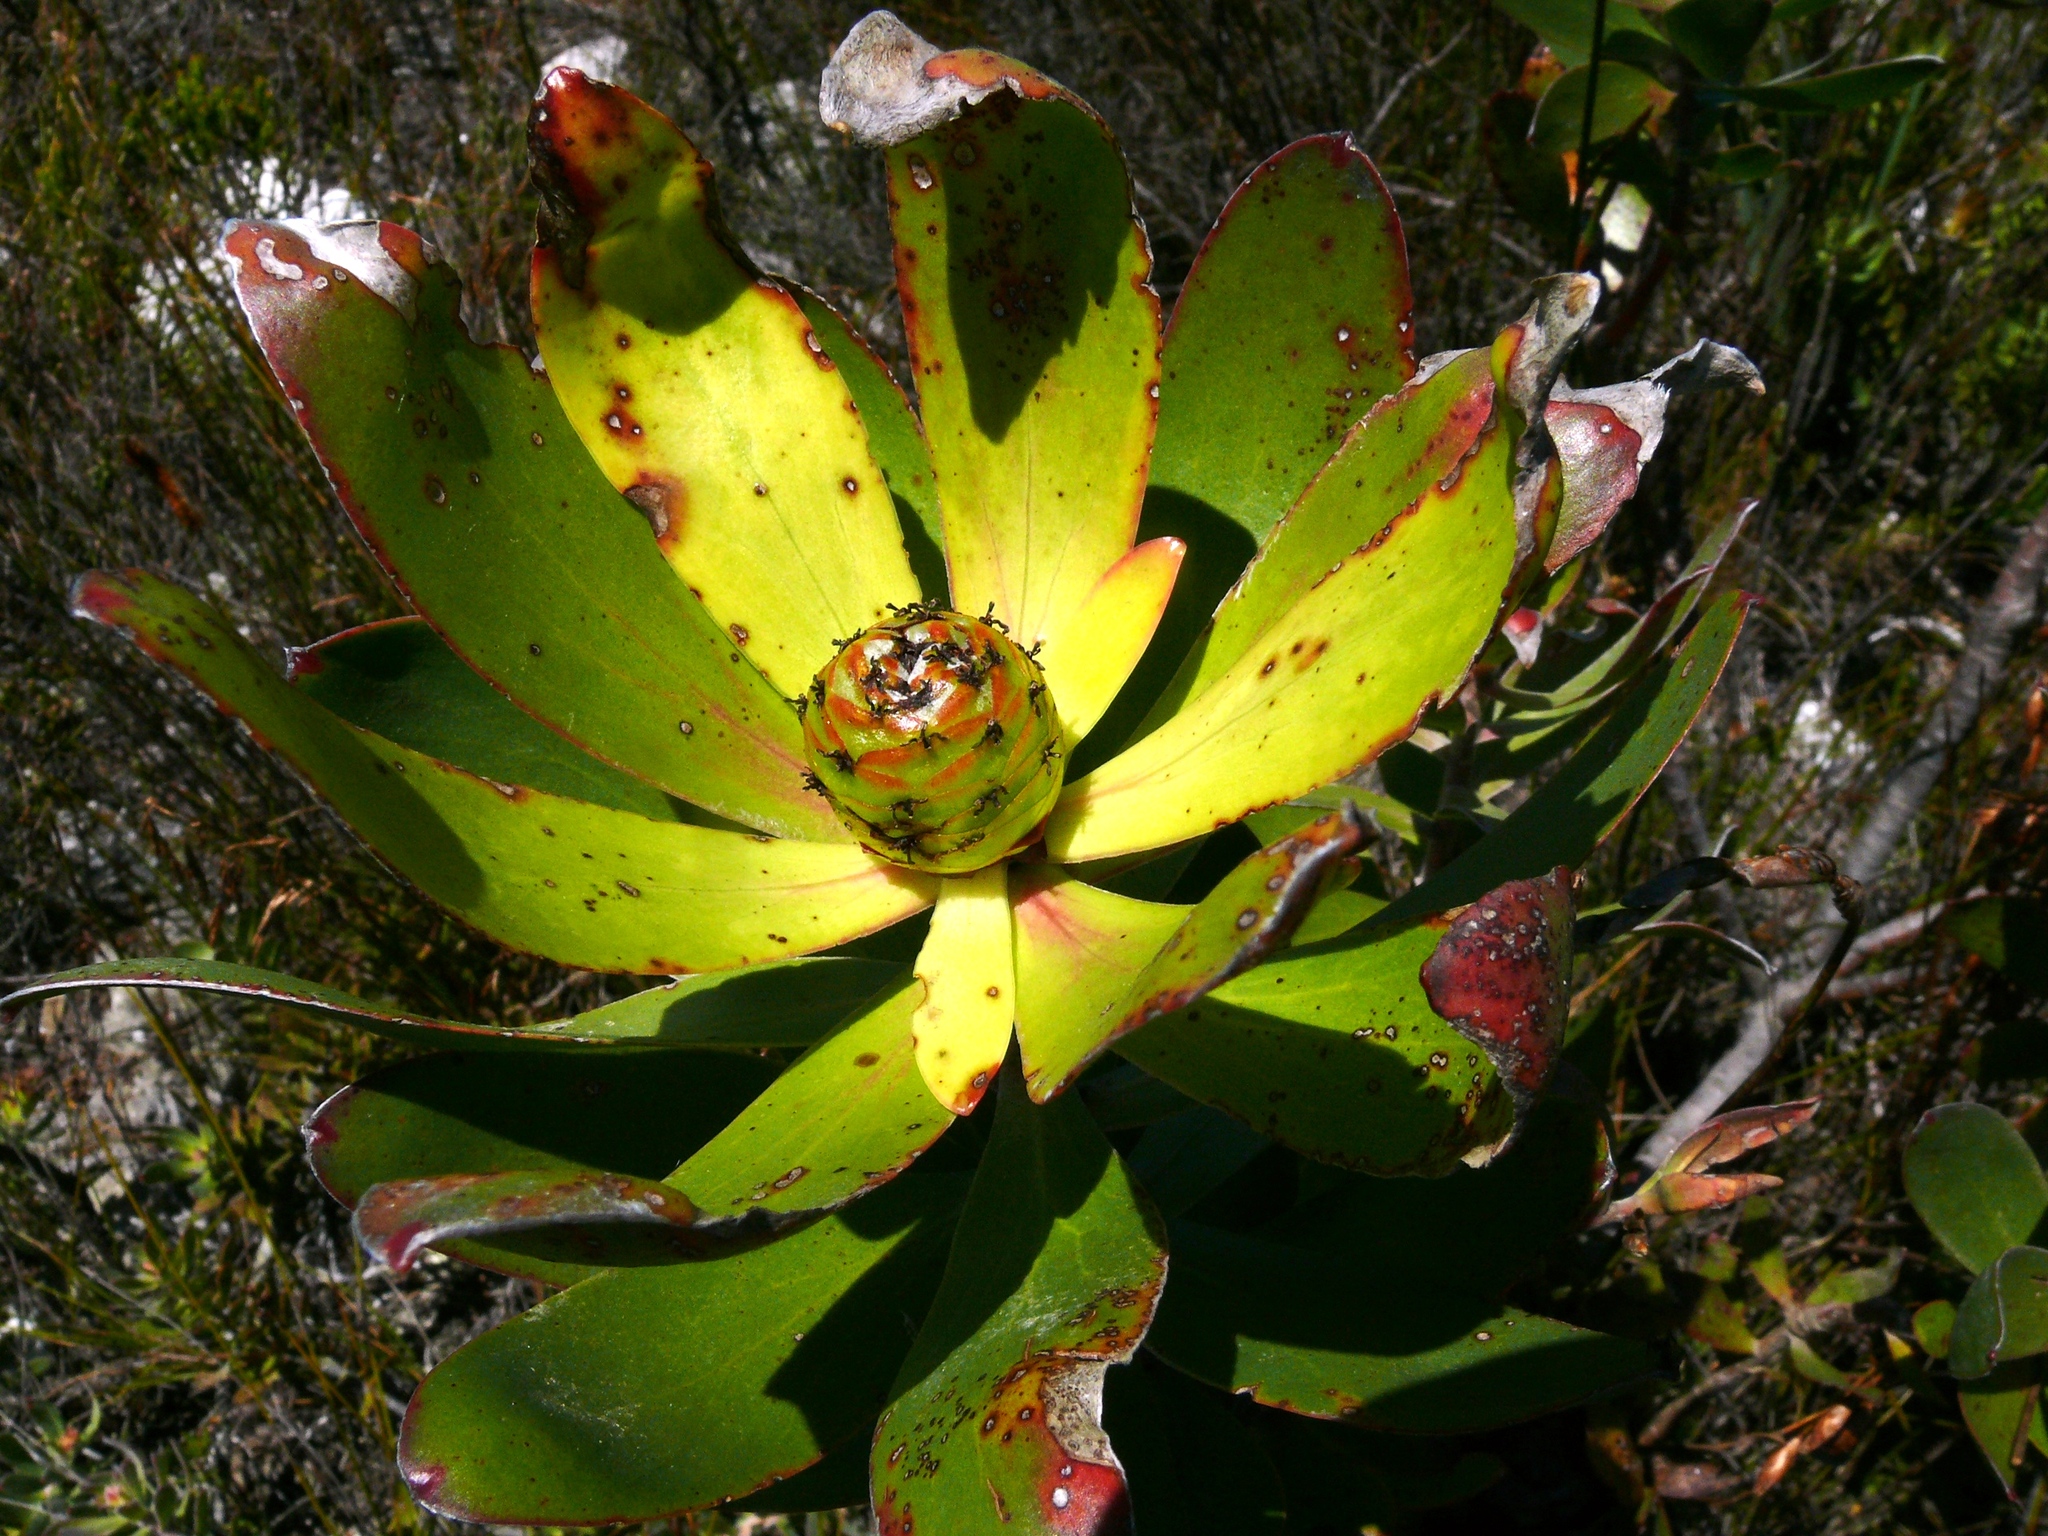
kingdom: Plantae
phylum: Tracheophyta
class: Magnoliopsida
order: Proteales
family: Proteaceae
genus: Leucadendron
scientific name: Leucadendron gandogeri
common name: Broad-leaf conebush
